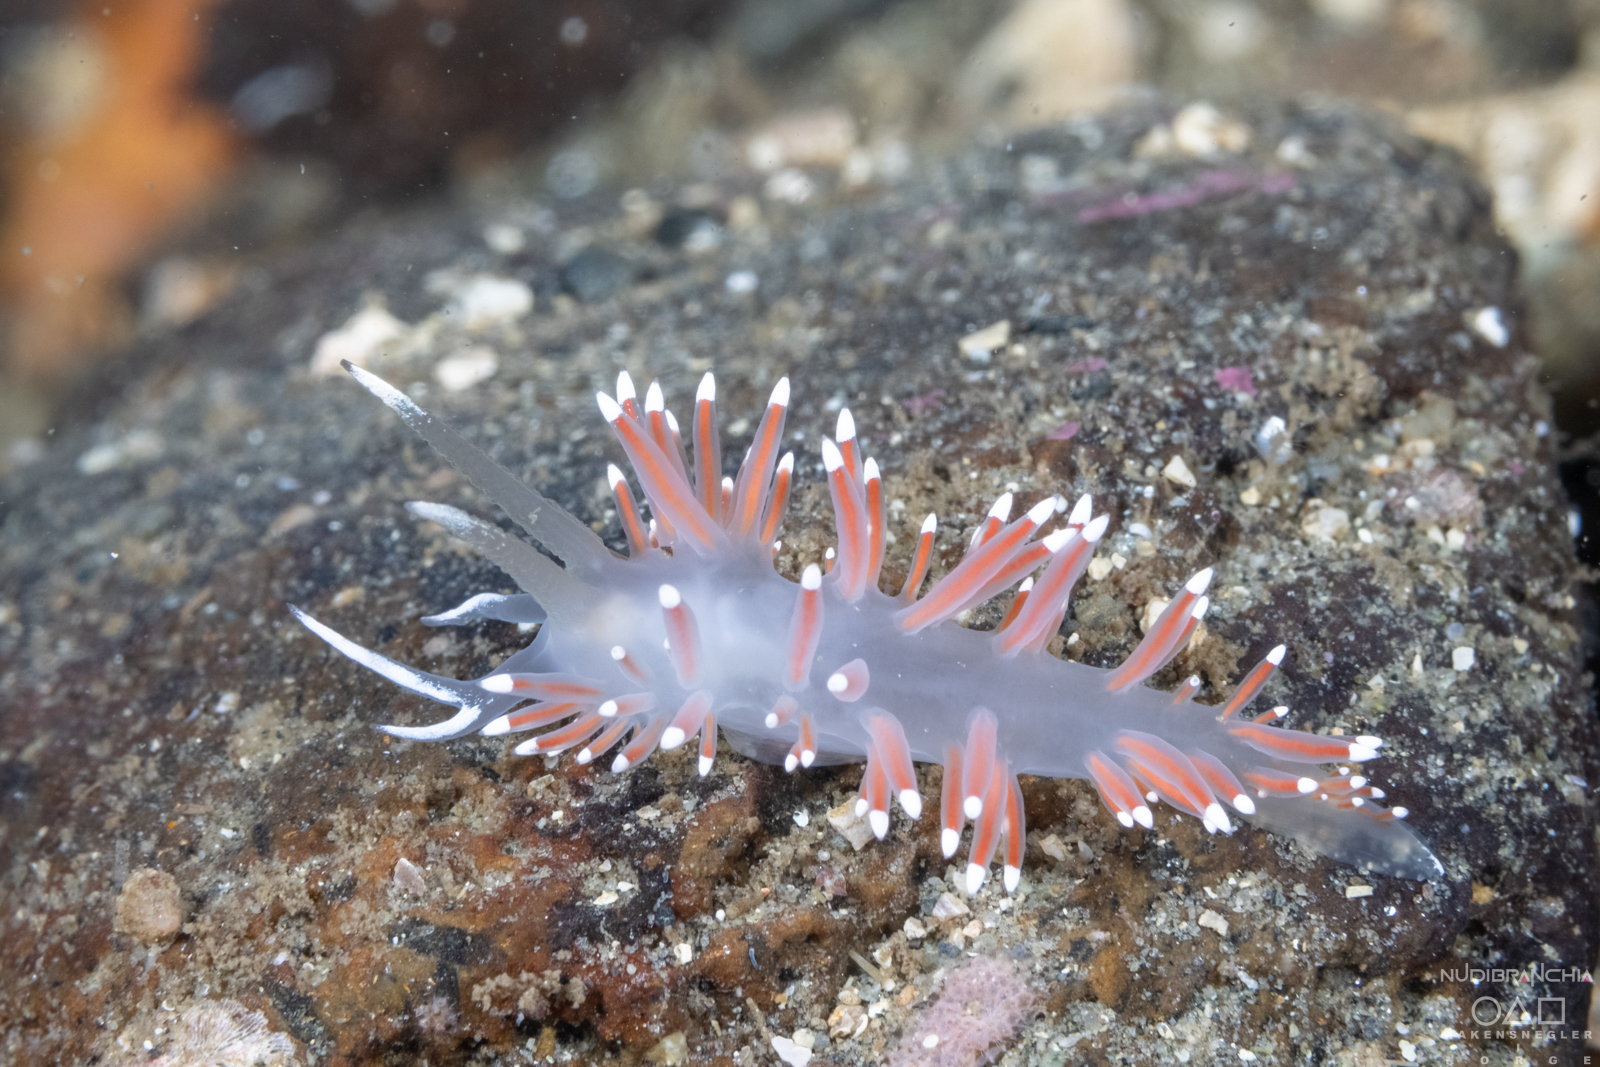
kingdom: Animalia
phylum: Mollusca
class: Gastropoda
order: Nudibranchia
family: Coryphellidae
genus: Coryphella
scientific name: Coryphella browni
